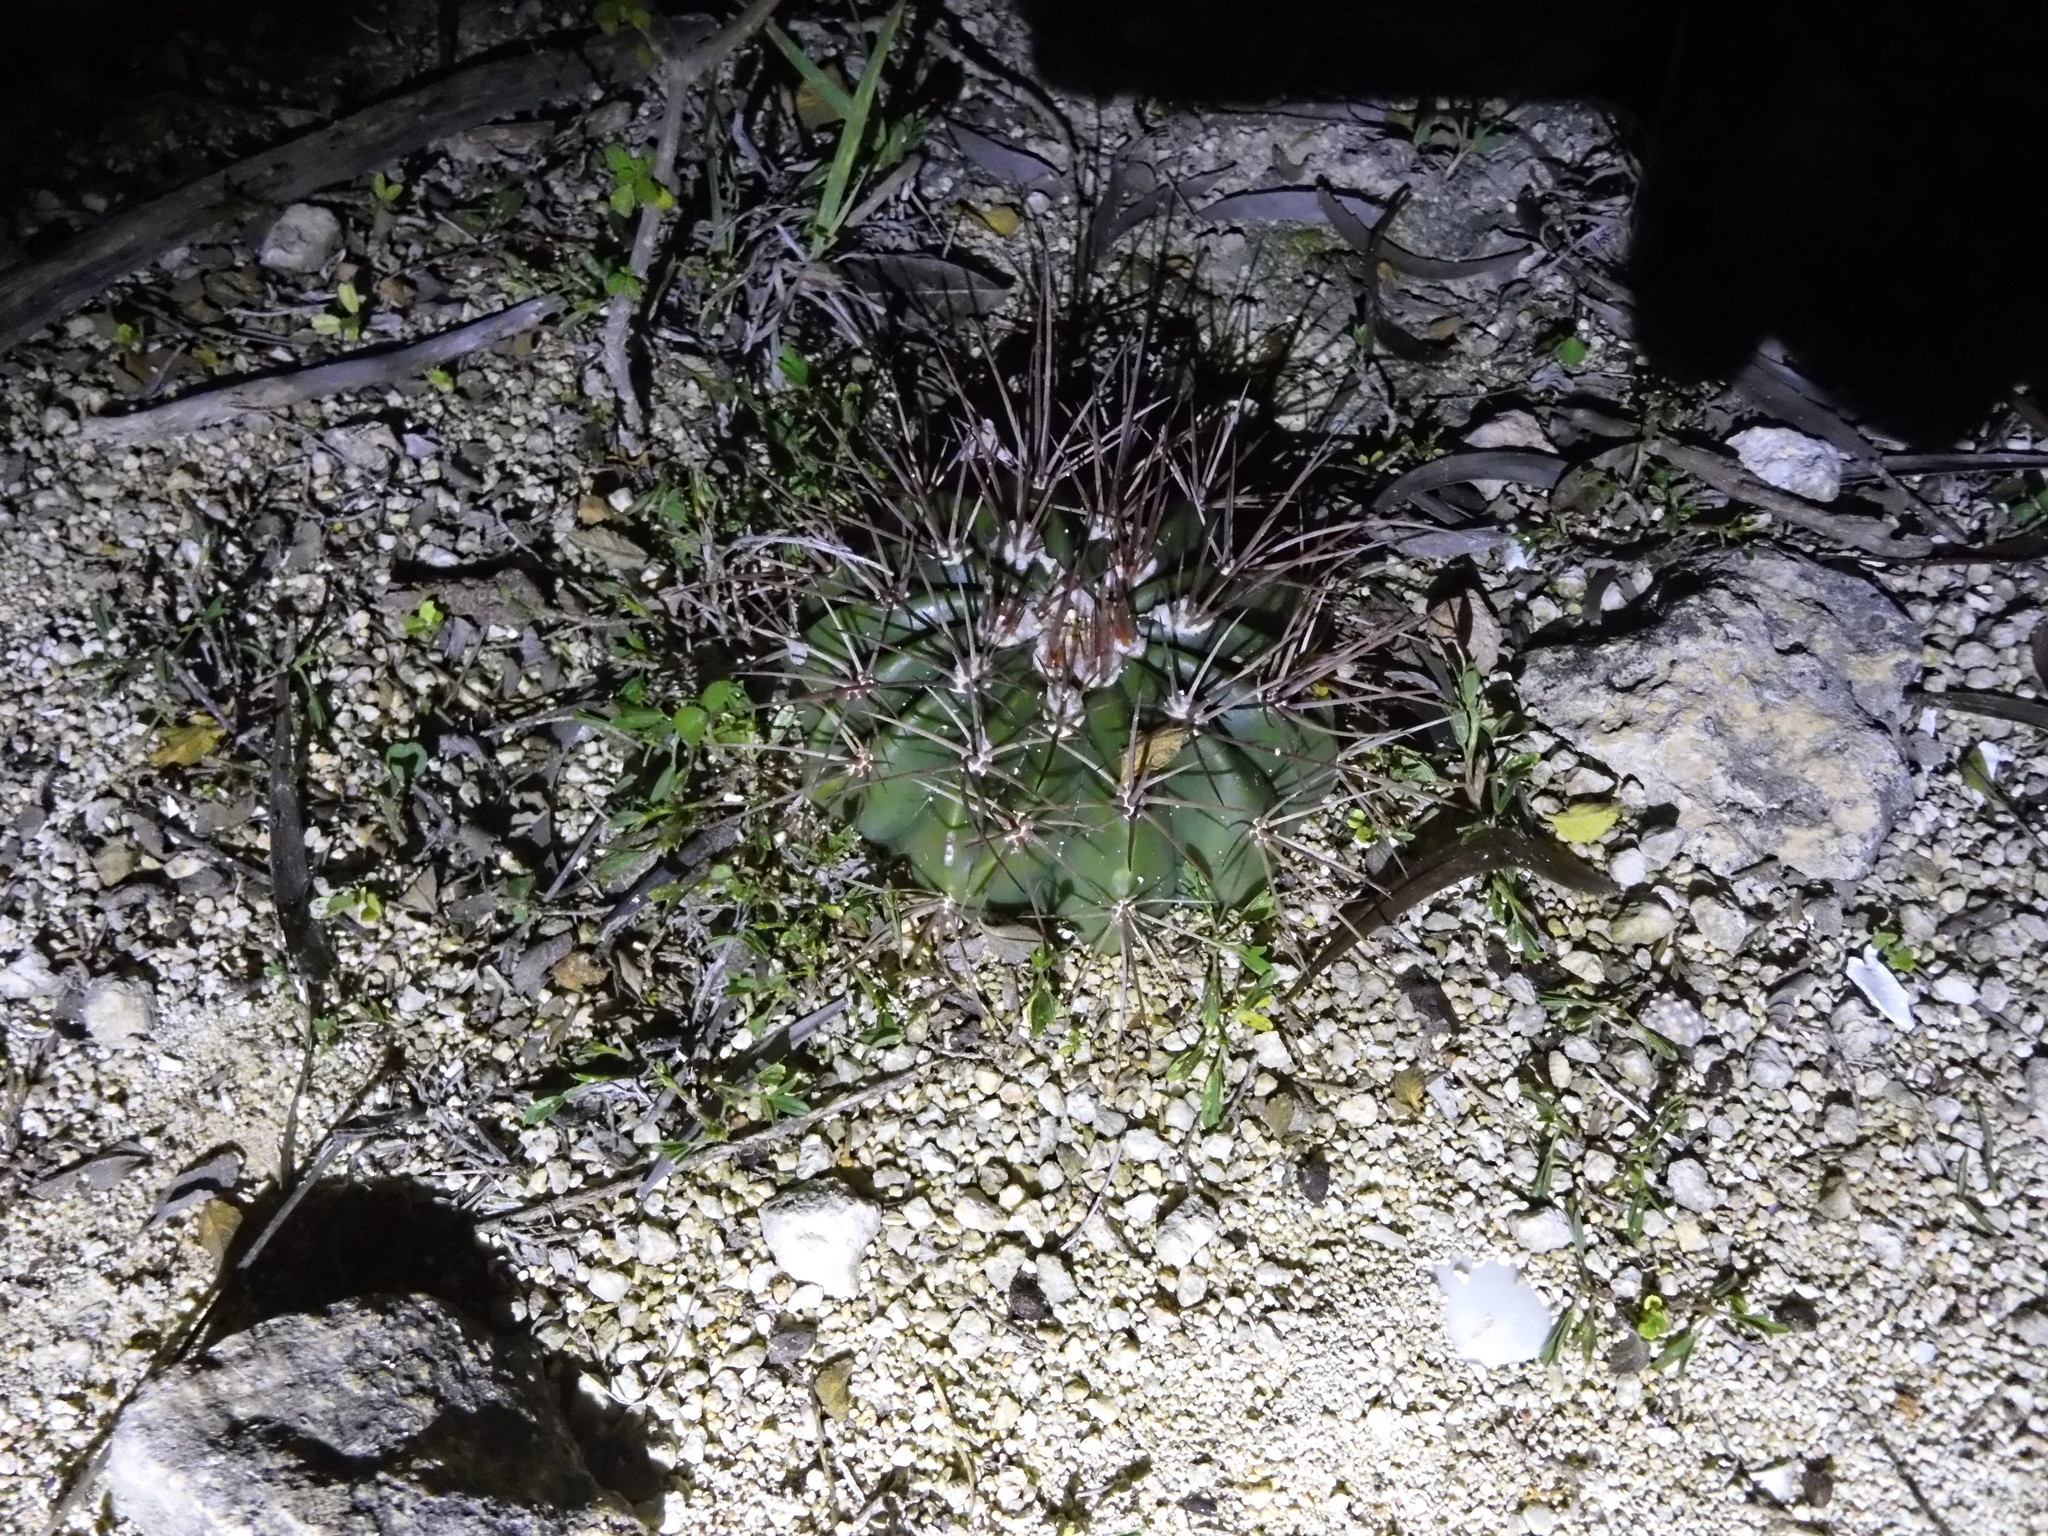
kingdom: Plantae
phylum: Tracheophyta
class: Magnoliopsida
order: Caryophyllales
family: Cactaceae
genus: Melocactus
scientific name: Melocactus intortus
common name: Barrel cactus
